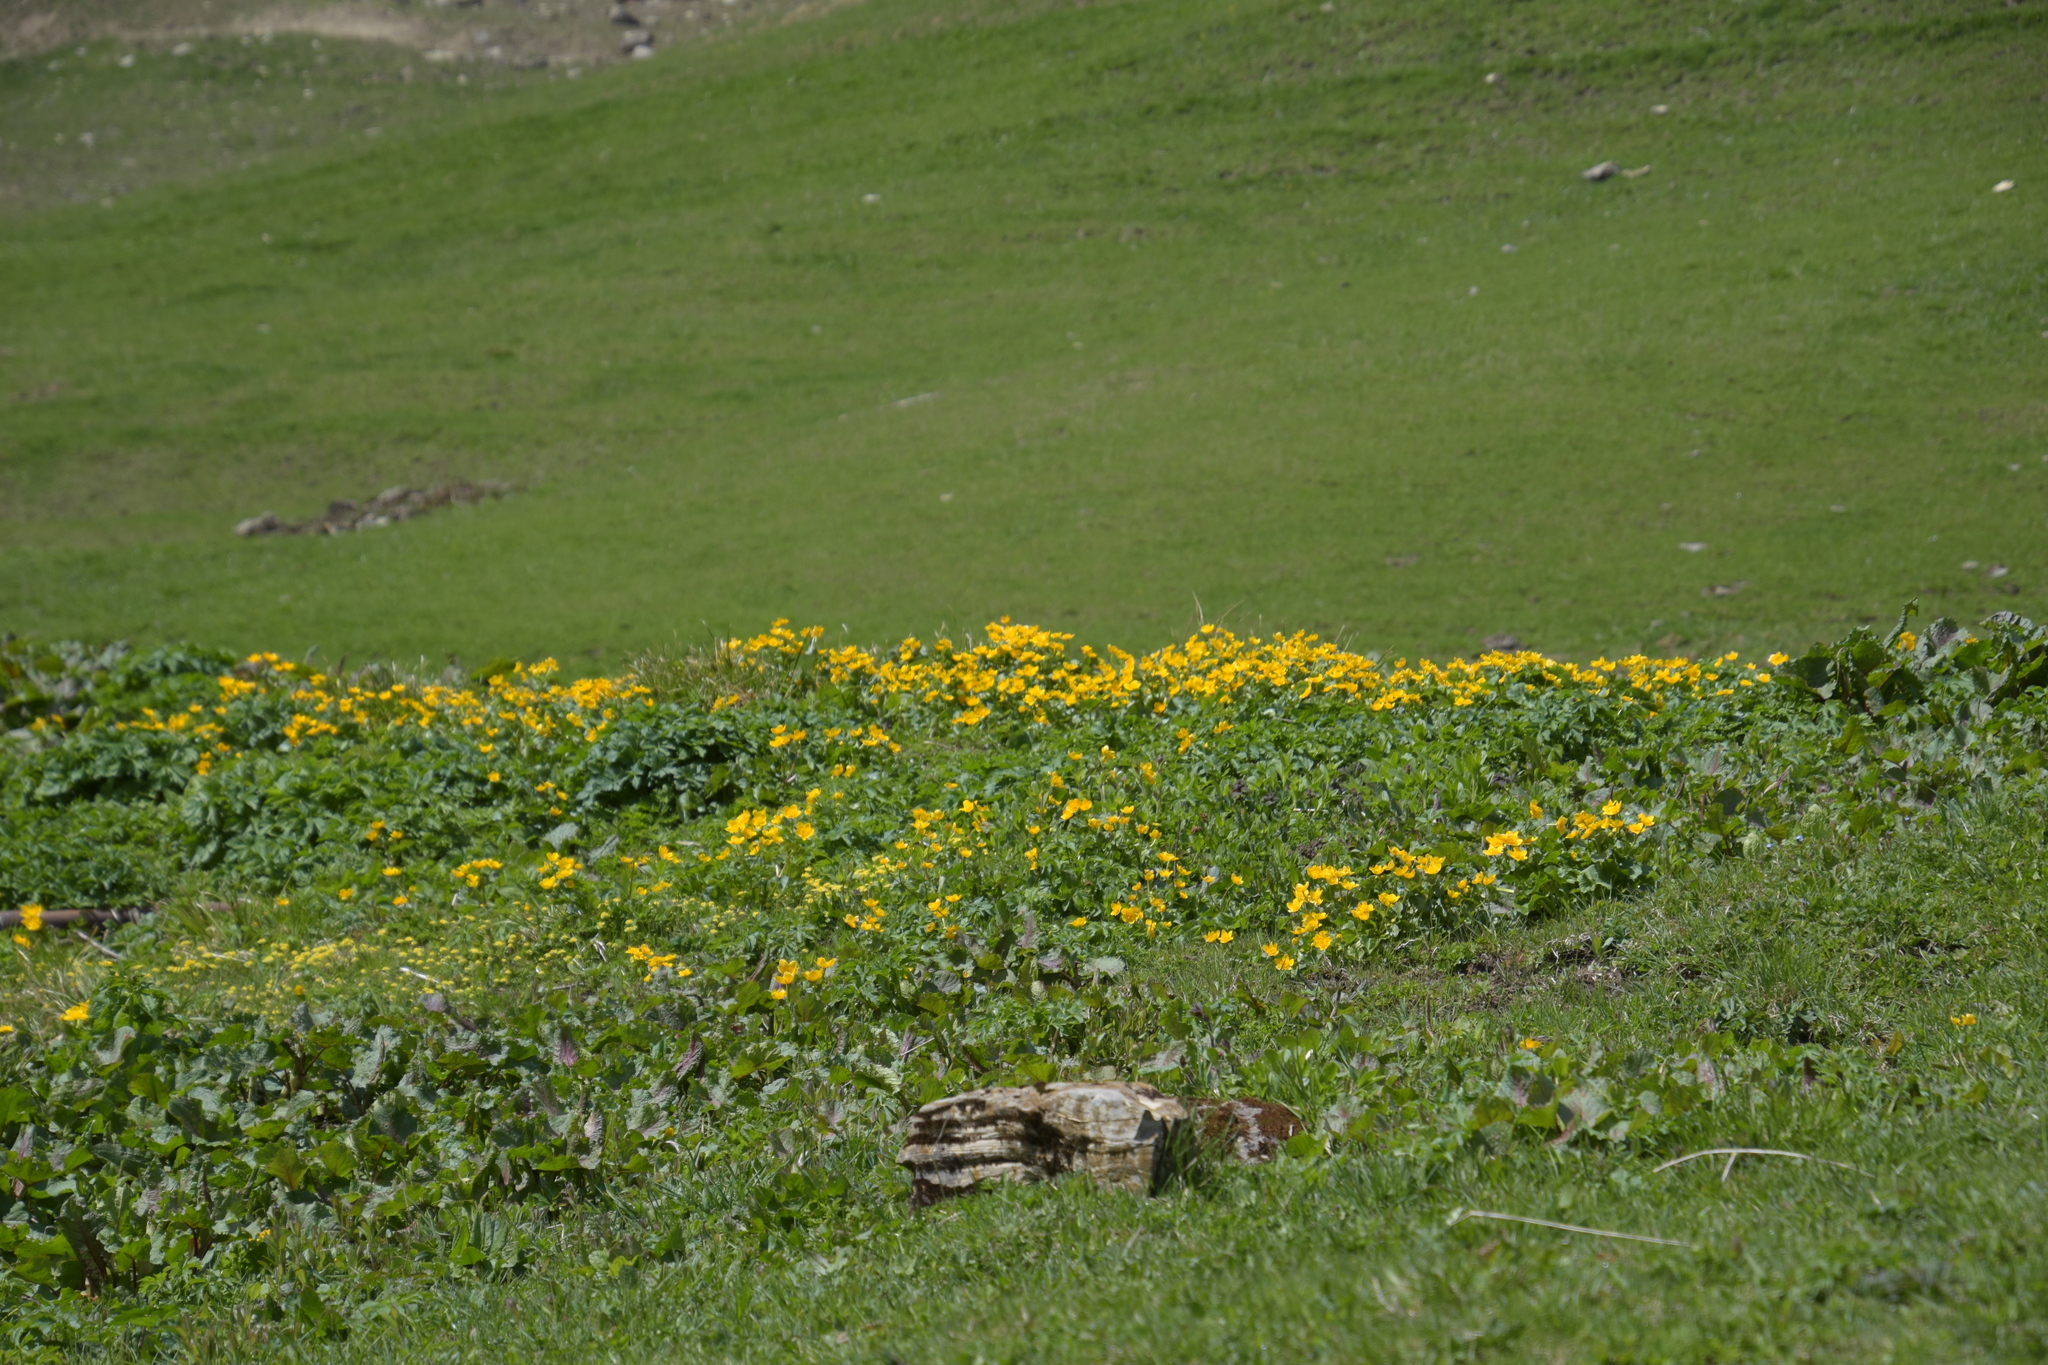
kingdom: Plantae
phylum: Tracheophyta
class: Magnoliopsida
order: Ranunculales
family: Ranunculaceae
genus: Caltha
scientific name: Caltha palustris
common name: Marsh marigold
